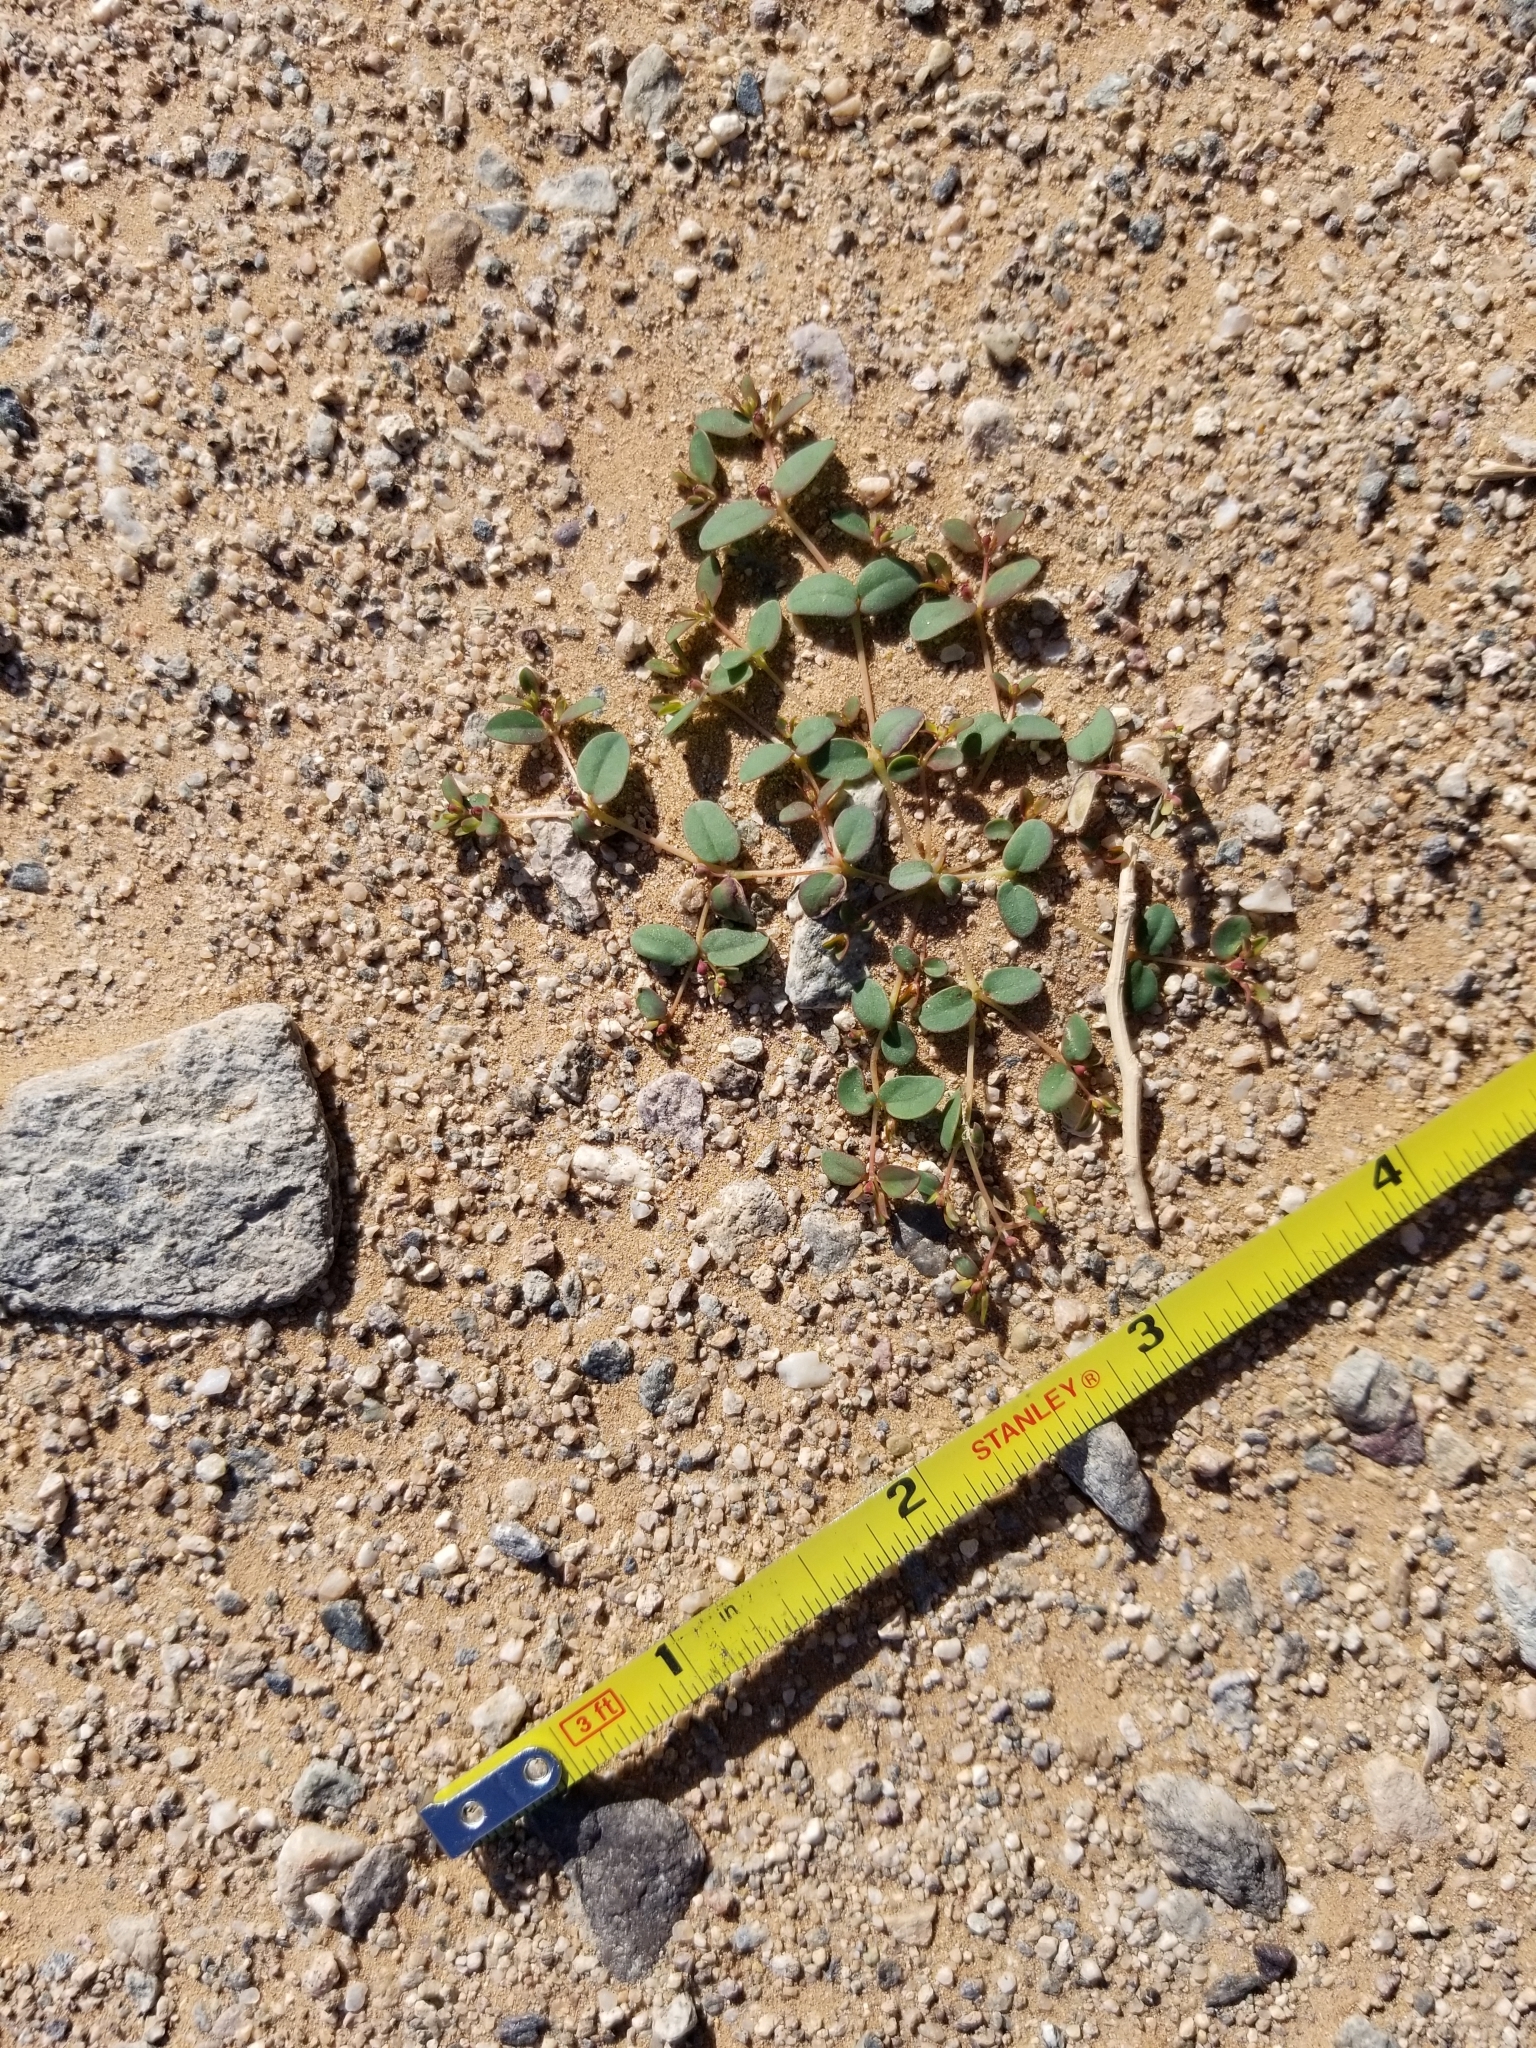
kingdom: Plantae
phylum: Tracheophyta
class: Magnoliopsida
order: Malpighiales
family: Euphorbiaceae
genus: Euphorbia
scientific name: Euphorbia polycarpa
